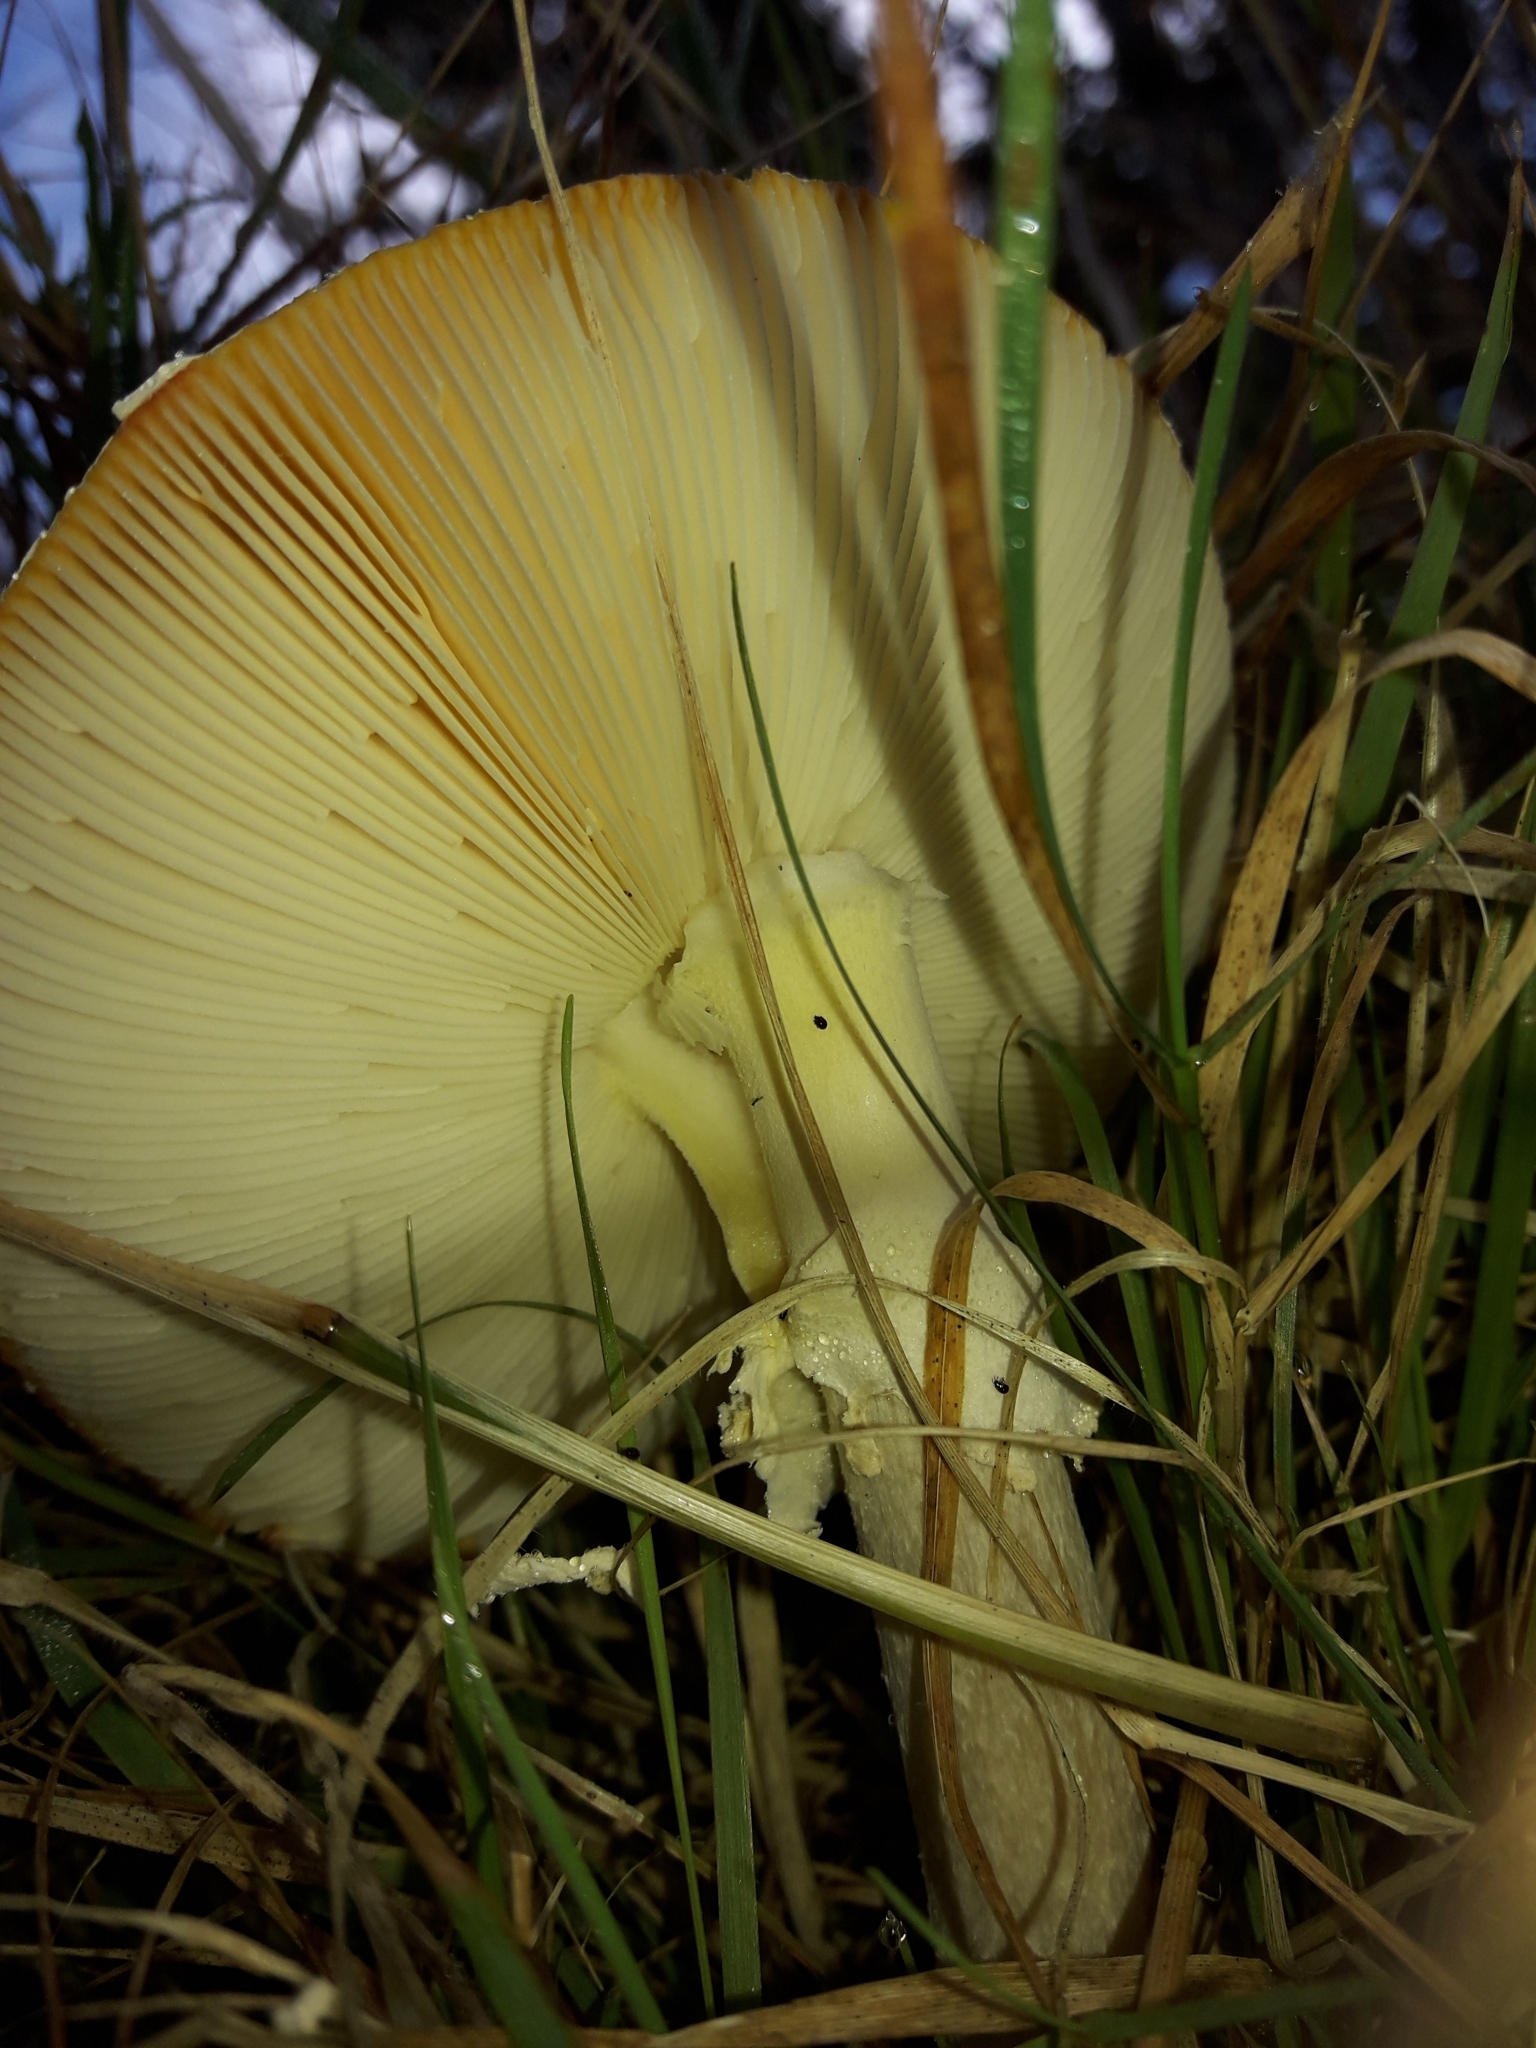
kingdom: Fungi
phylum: Basidiomycota
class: Agaricomycetes
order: Agaricales
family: Amanitaceae
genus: Amanita
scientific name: Amanita muscaria
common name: Fly agaric
